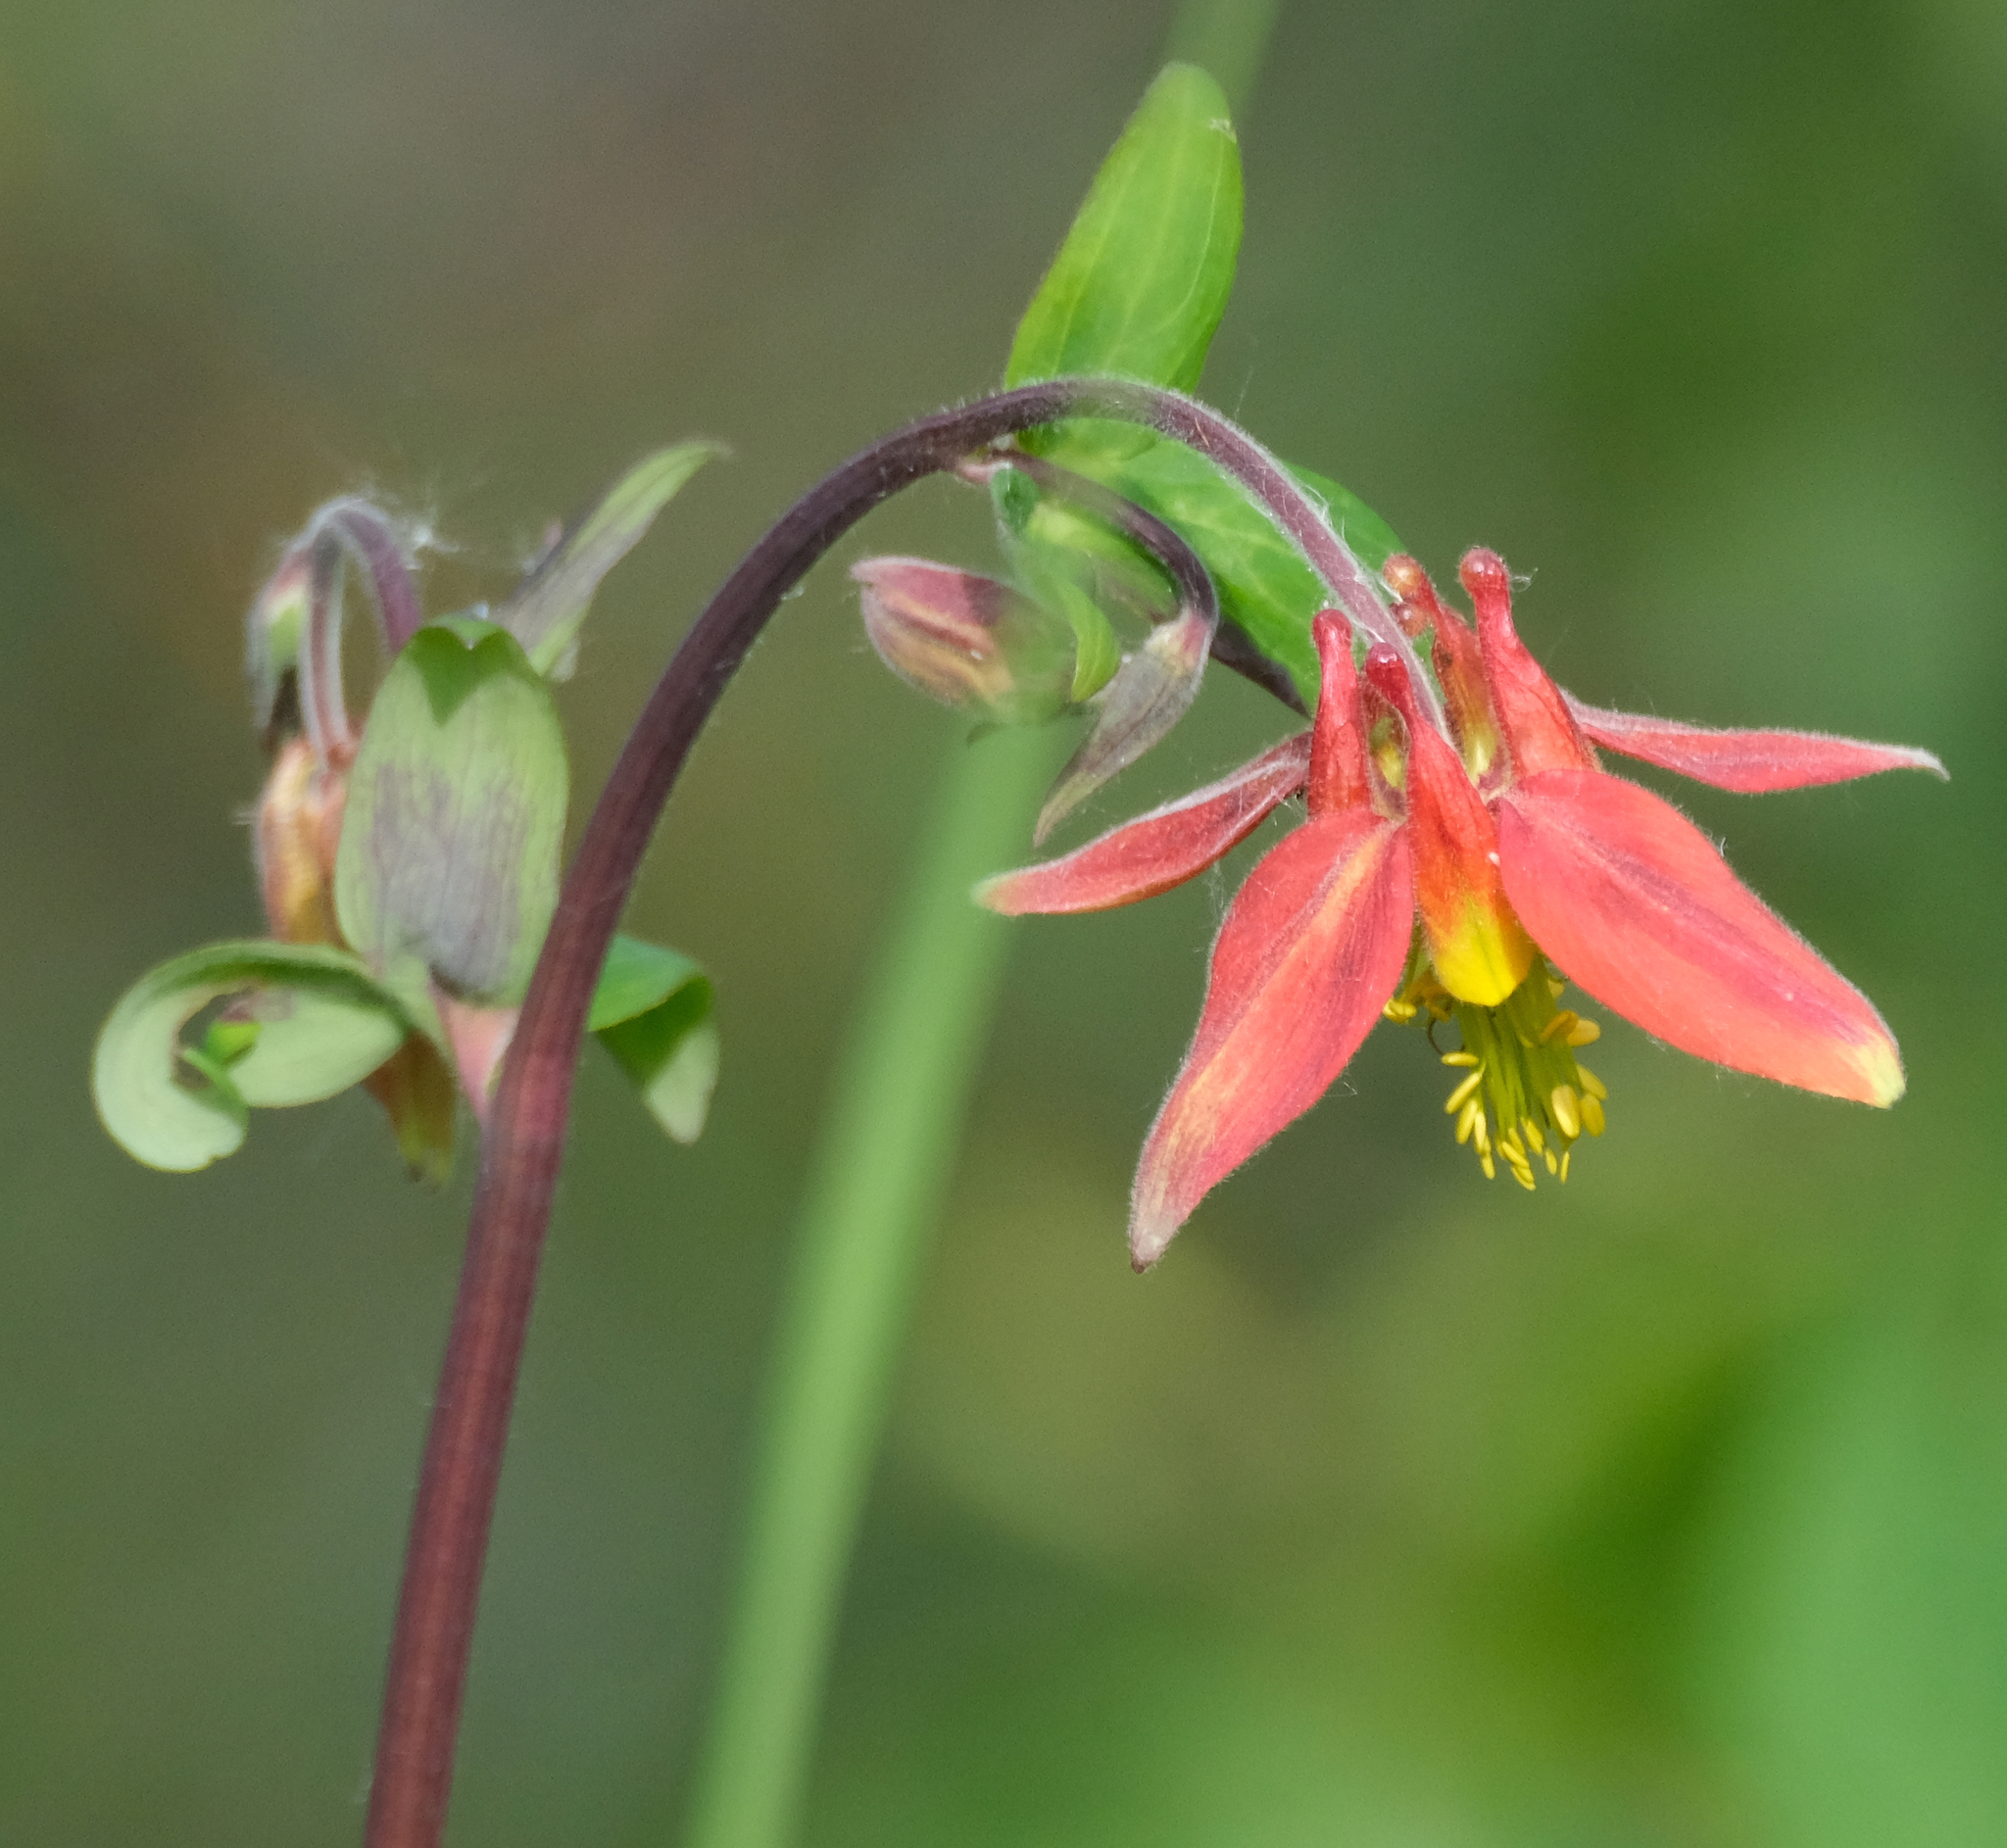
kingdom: Plantae
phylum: Tracheophyta
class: Magnoliopsida
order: Ranunculales
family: Ranunculaceae
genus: Aquilegia
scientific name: Aquilegia formosa
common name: Sitka columbine
